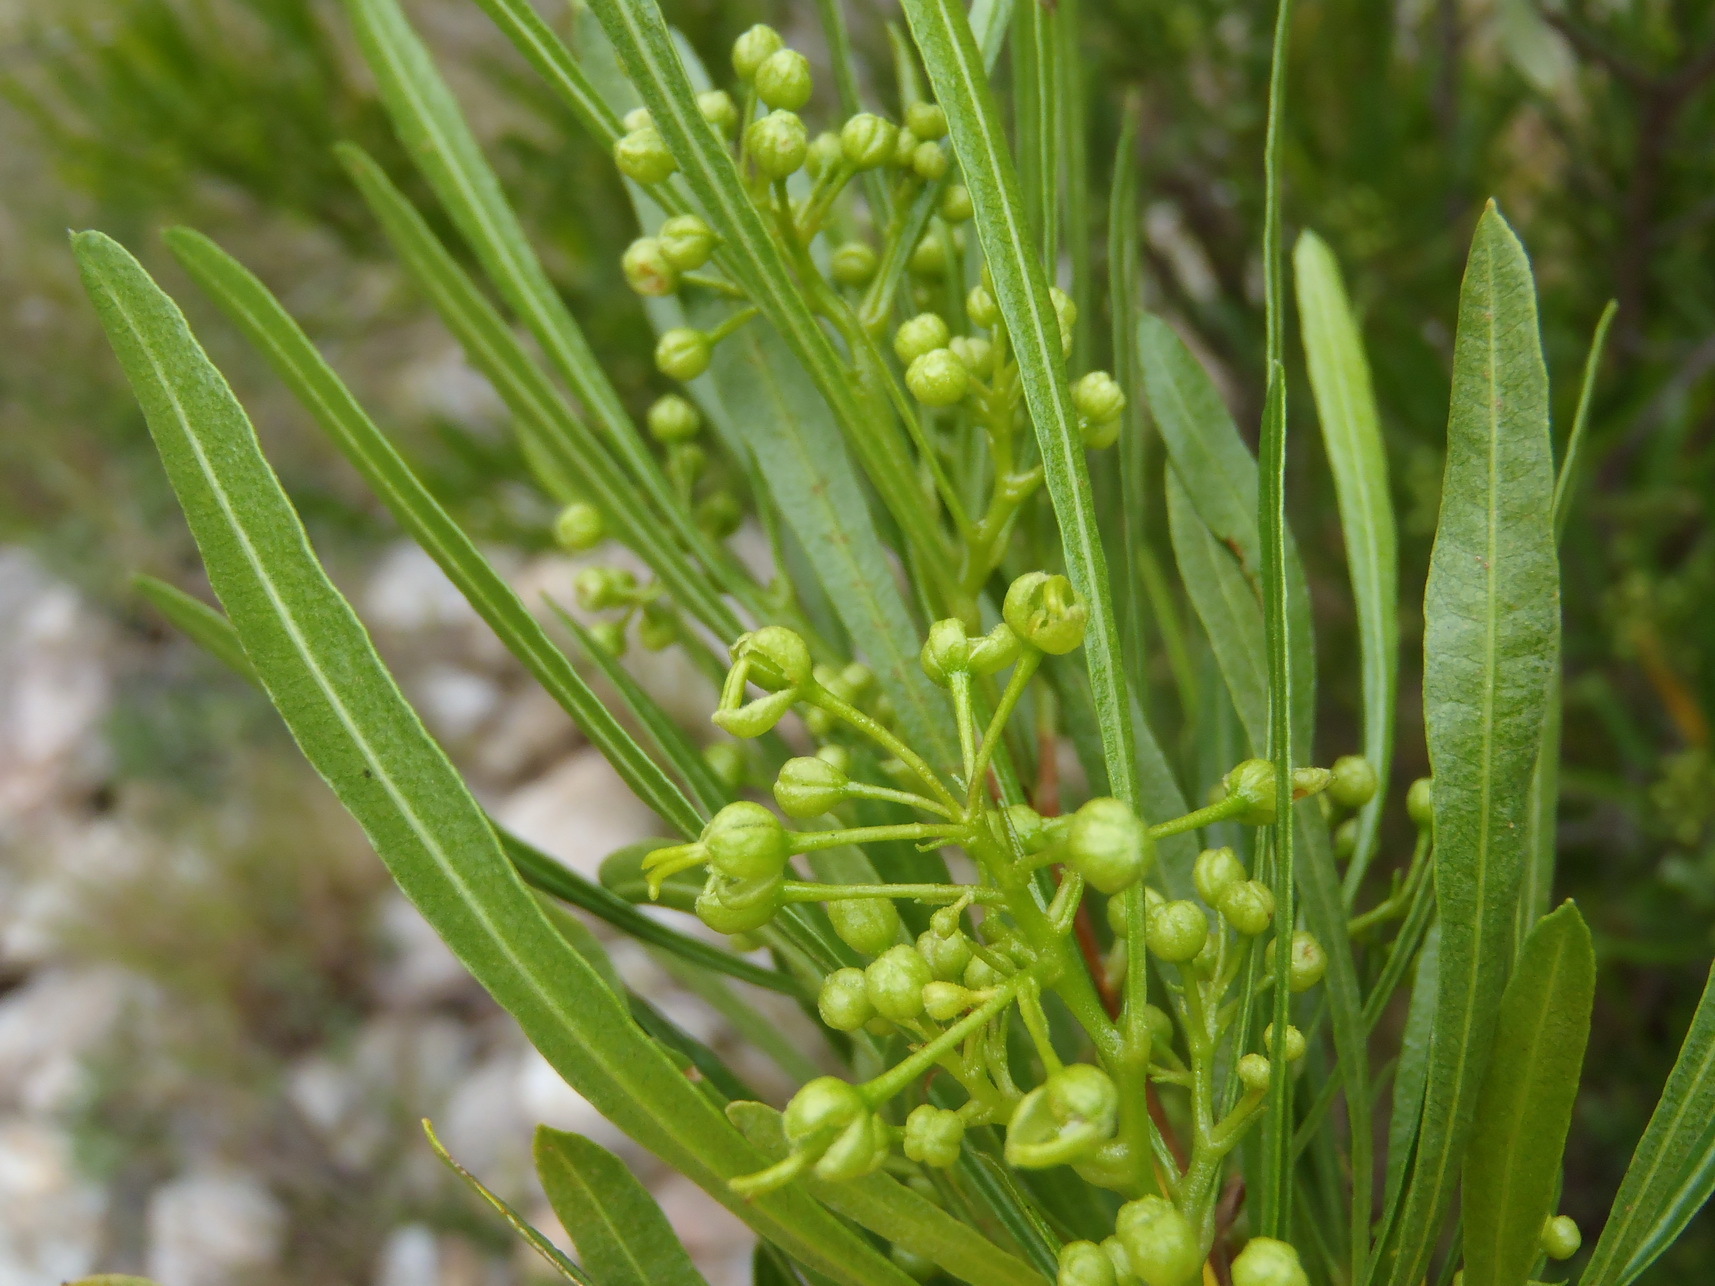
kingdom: Plantae
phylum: Tracheophyta
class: Magnoliopsida
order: Sapindales
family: Sapindaceae
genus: Dodonaea
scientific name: Dodonaea viscosa
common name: Hopbush
